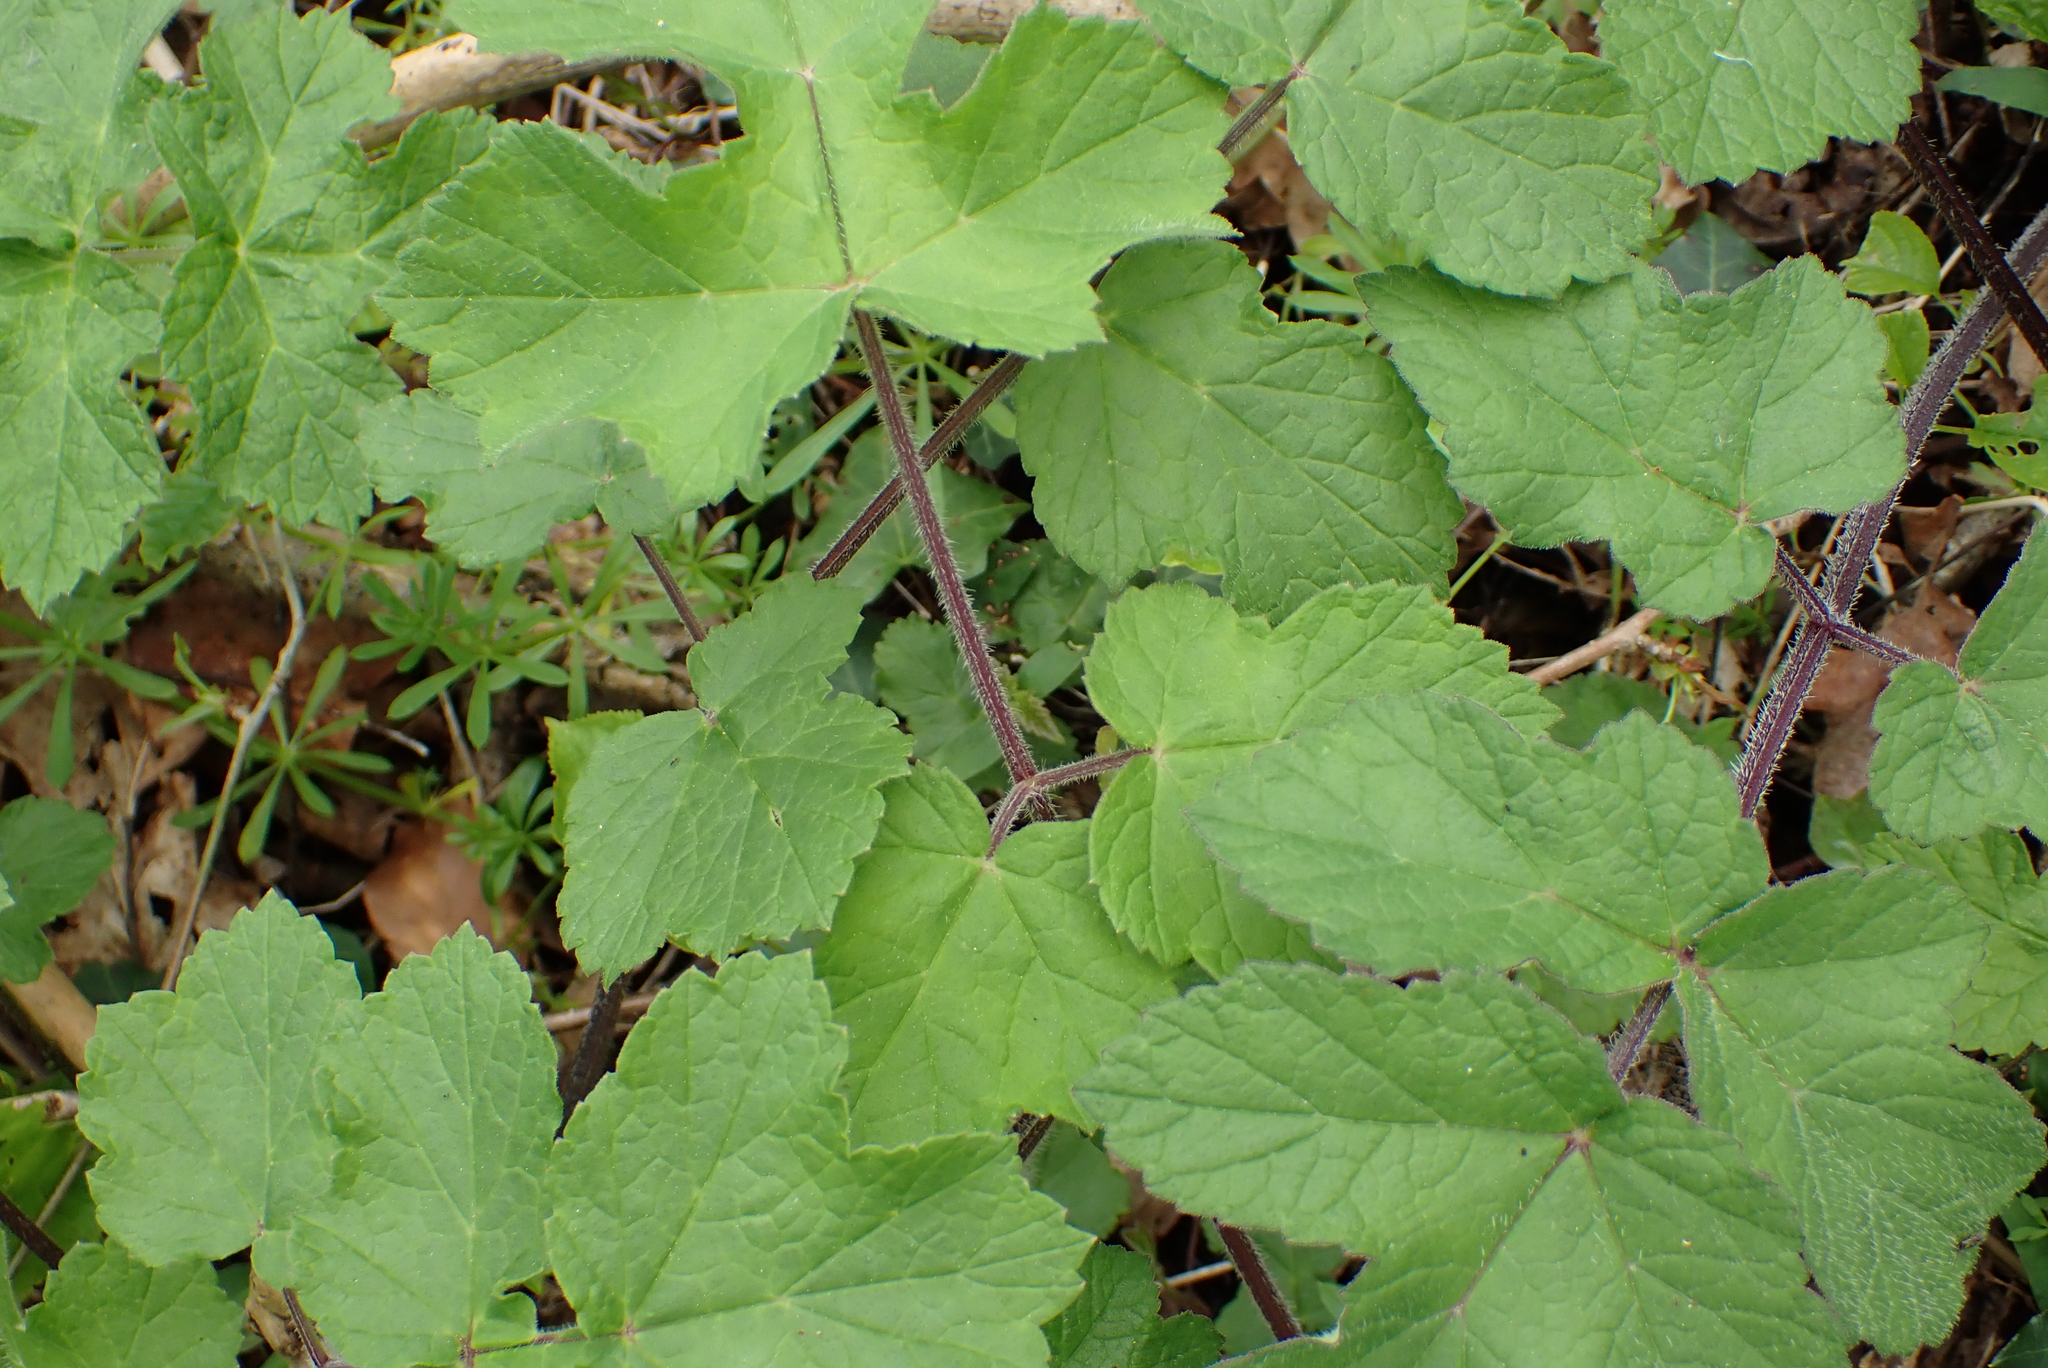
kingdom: Plantae
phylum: Tracheophyta
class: Magnoliopsida
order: Apiales
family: Apiaceae
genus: Heracleum
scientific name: Heracleum sphondylium
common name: Hogweed
